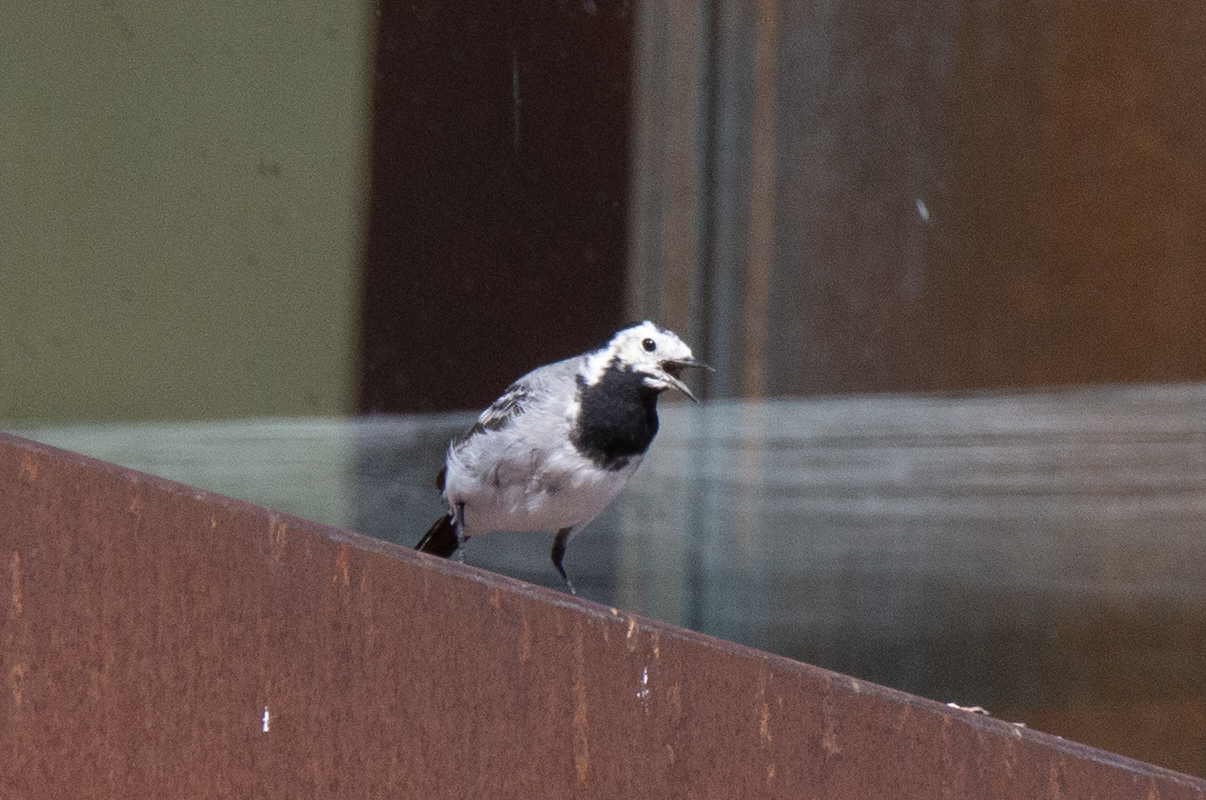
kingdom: Animalia
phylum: Chordata
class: Aves
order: Passeriformes
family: Motacillidae
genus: Motacilla
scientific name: Motacilla alba
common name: White wagtail
